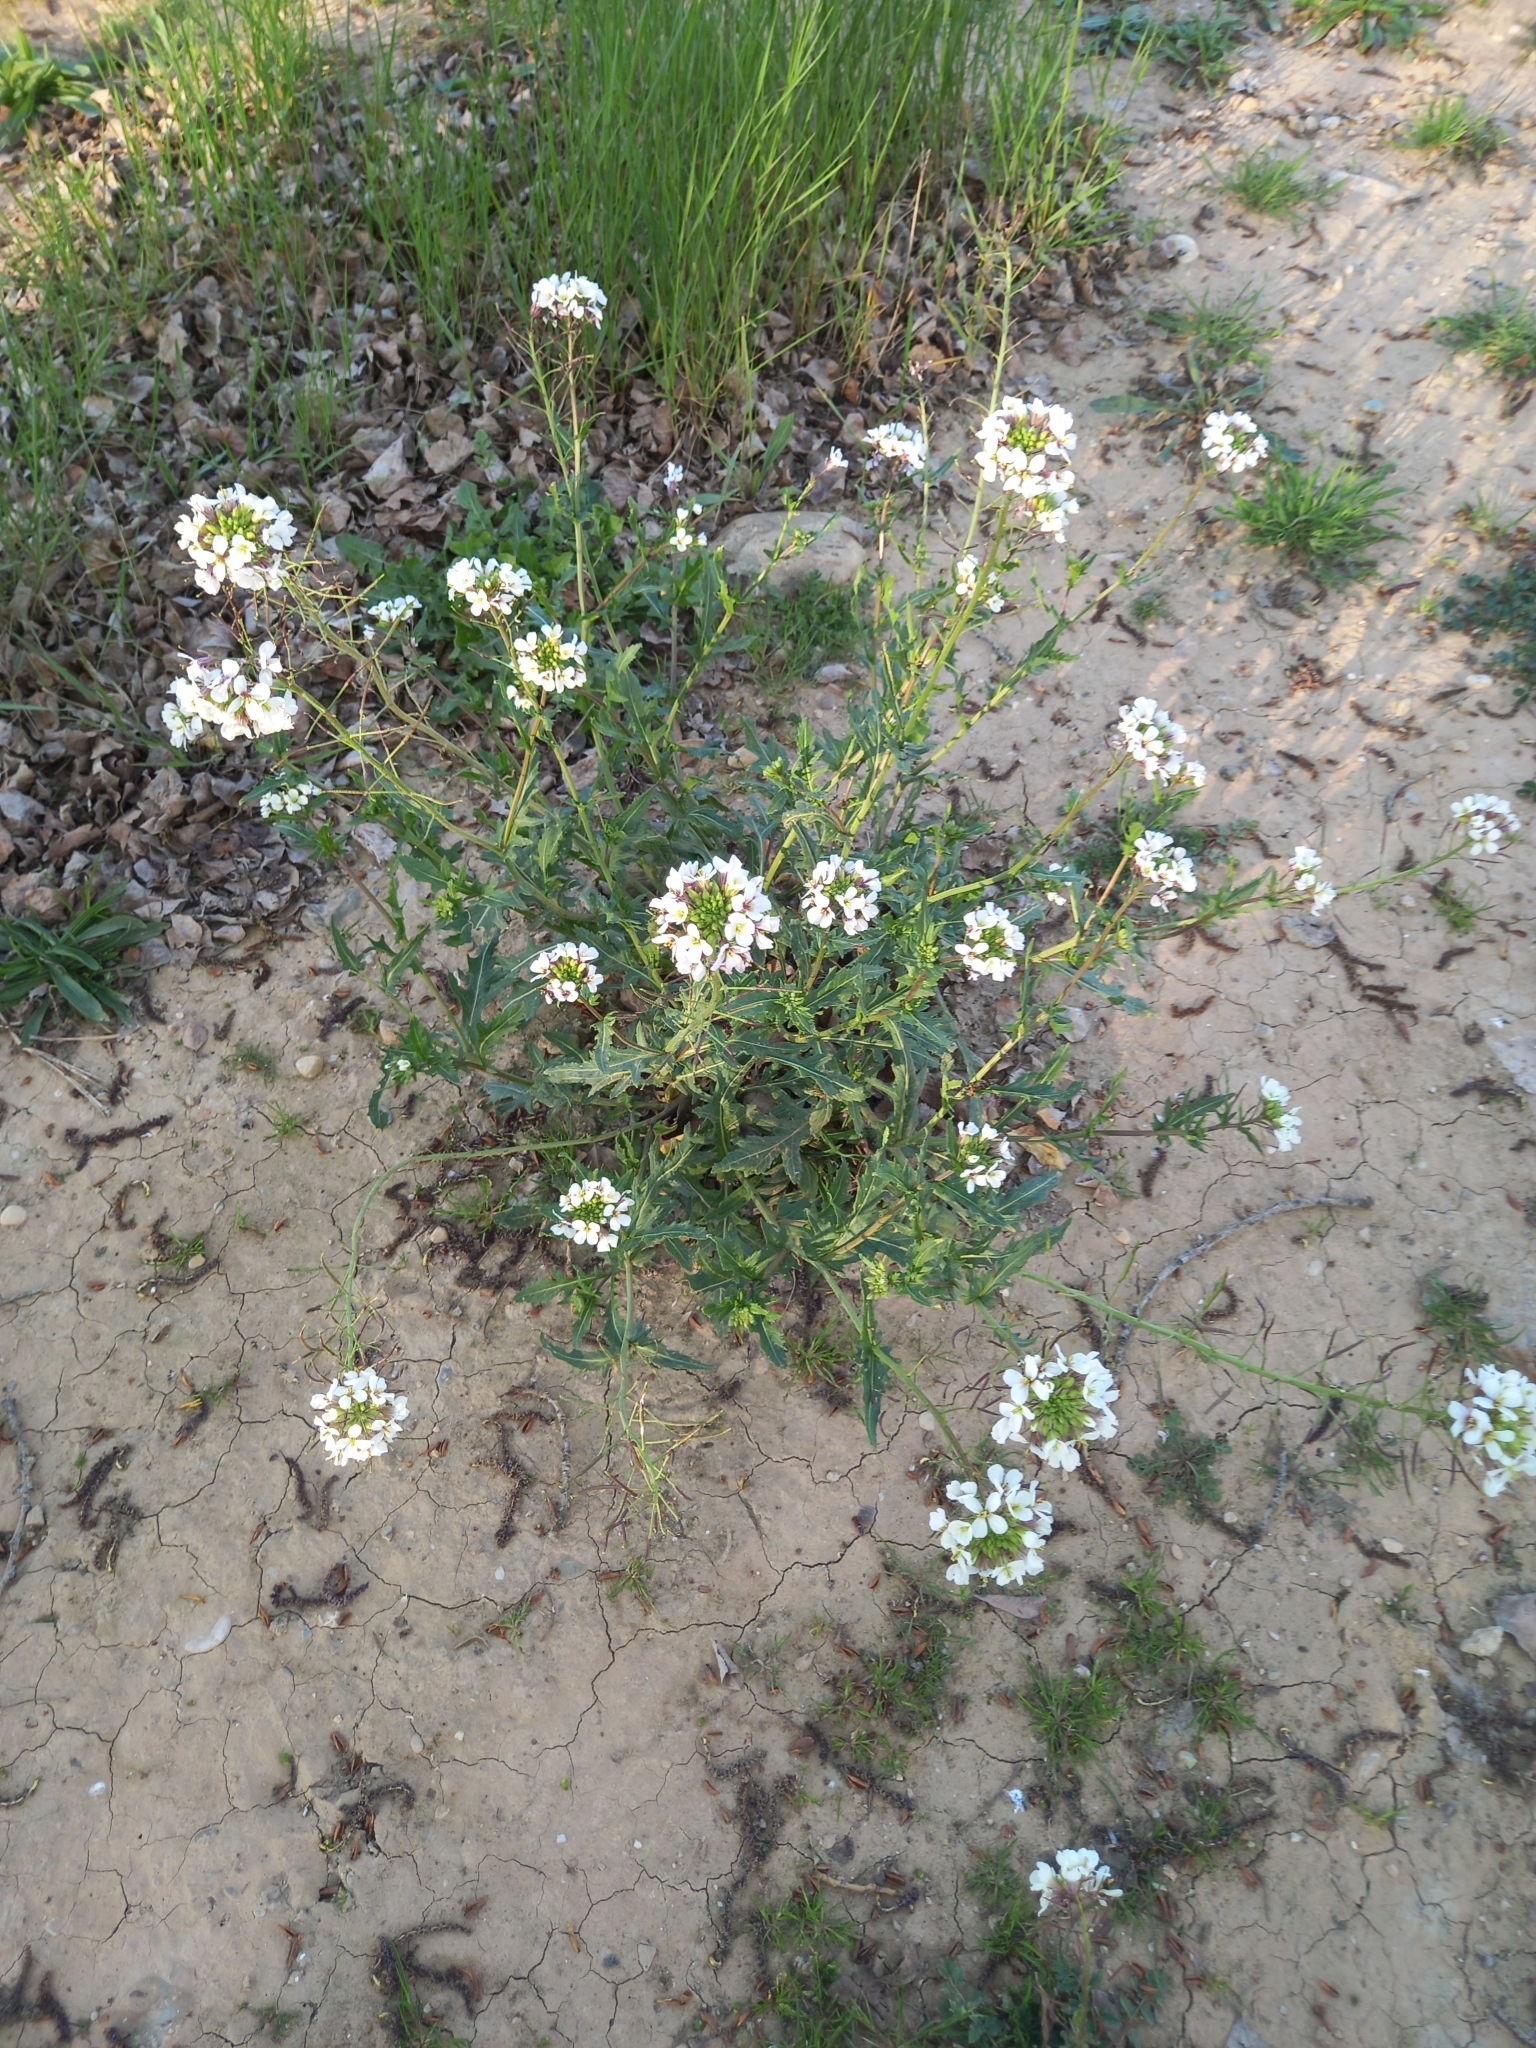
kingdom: Plantae
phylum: Tracheophyta
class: Magnoliopsida
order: Brassicales
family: Brassicaceae
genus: Diplotaxis
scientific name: Diplotaxis erucoides
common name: White rocket
